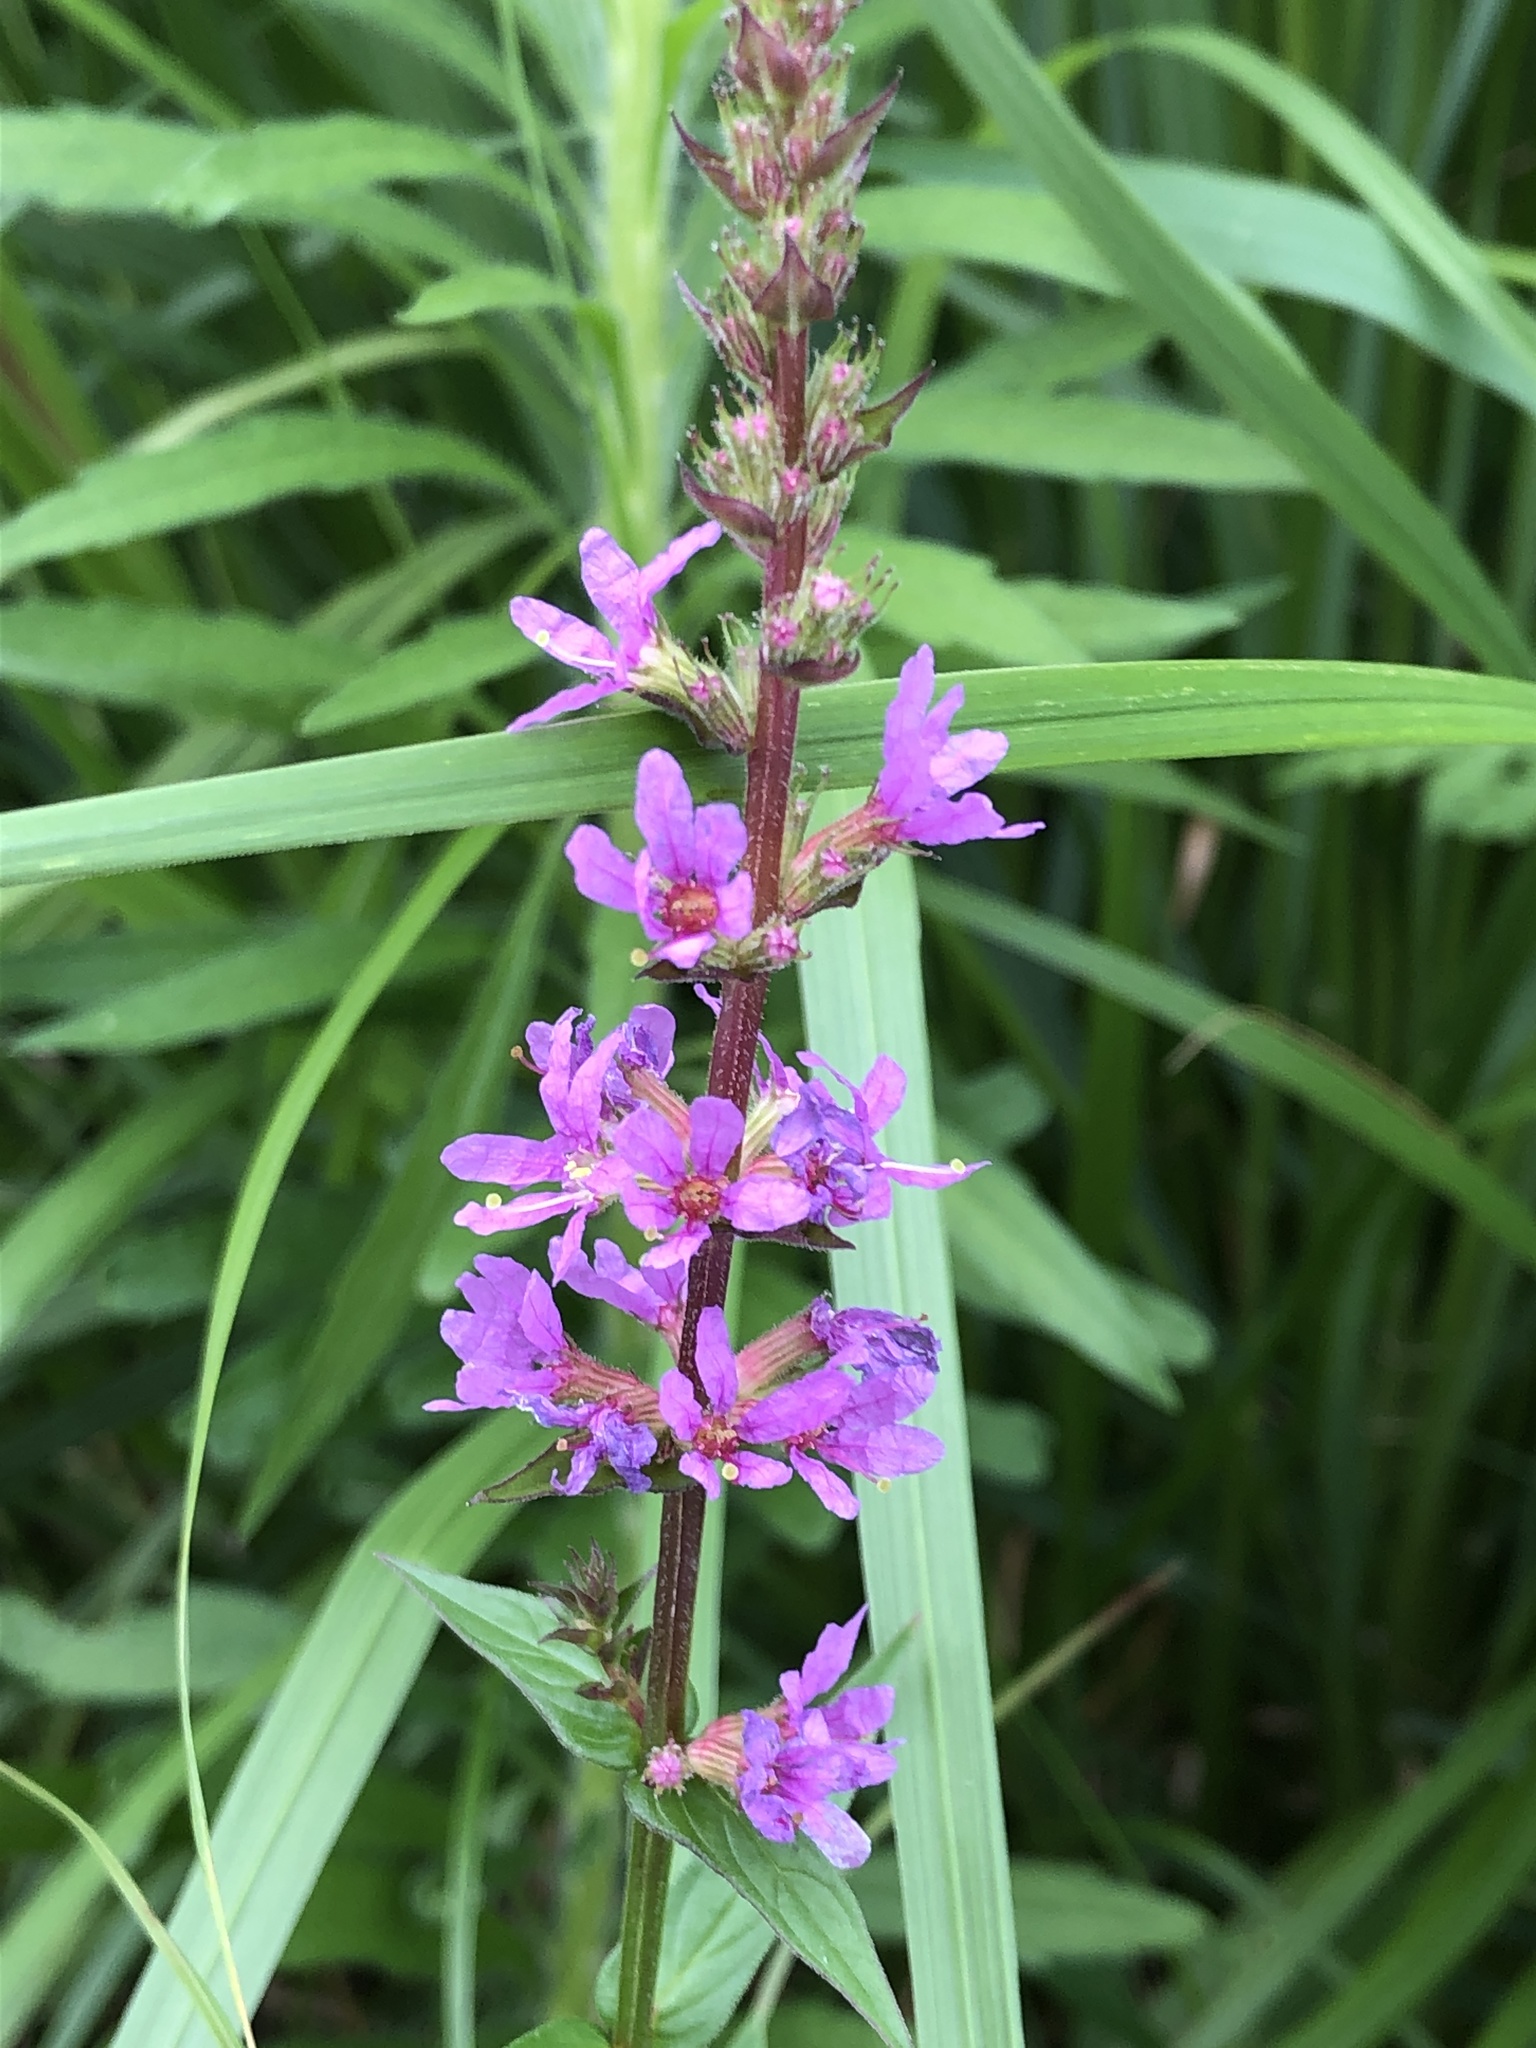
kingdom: Plantae
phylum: Tracheophyta
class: Magnoliopsida
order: Myrtales
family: Lythraceae
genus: Lythrum
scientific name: Lythrum salicaria
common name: Purple loosestrife
